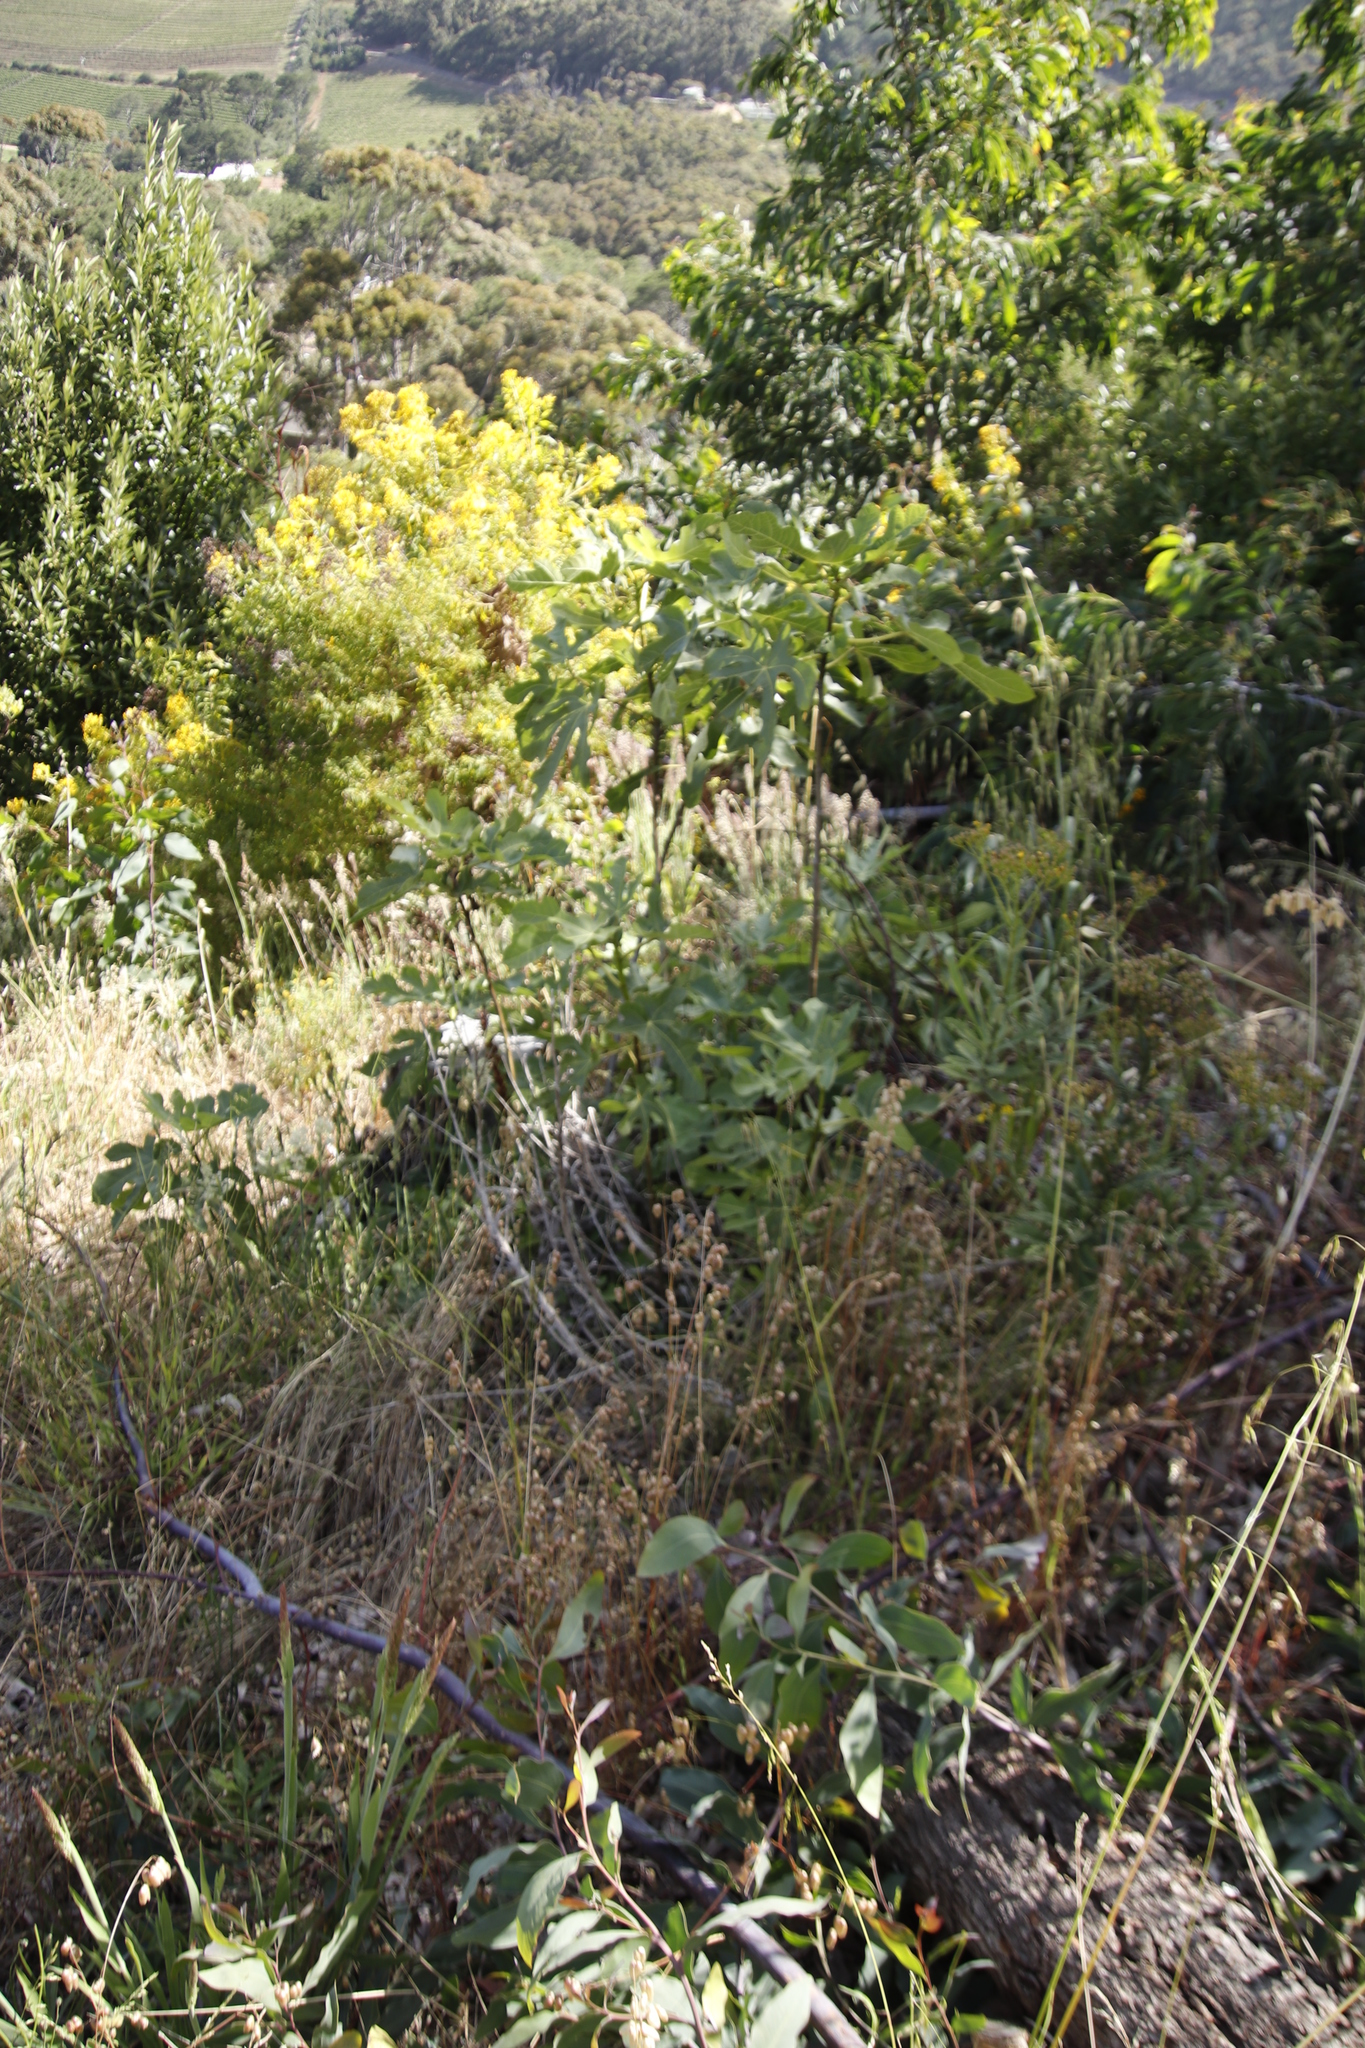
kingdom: Plantae
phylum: Tracheophyta
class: Magnoliopsida
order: Rosales
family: Moraceae
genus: Ficus
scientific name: Ficus carica
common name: Fig
